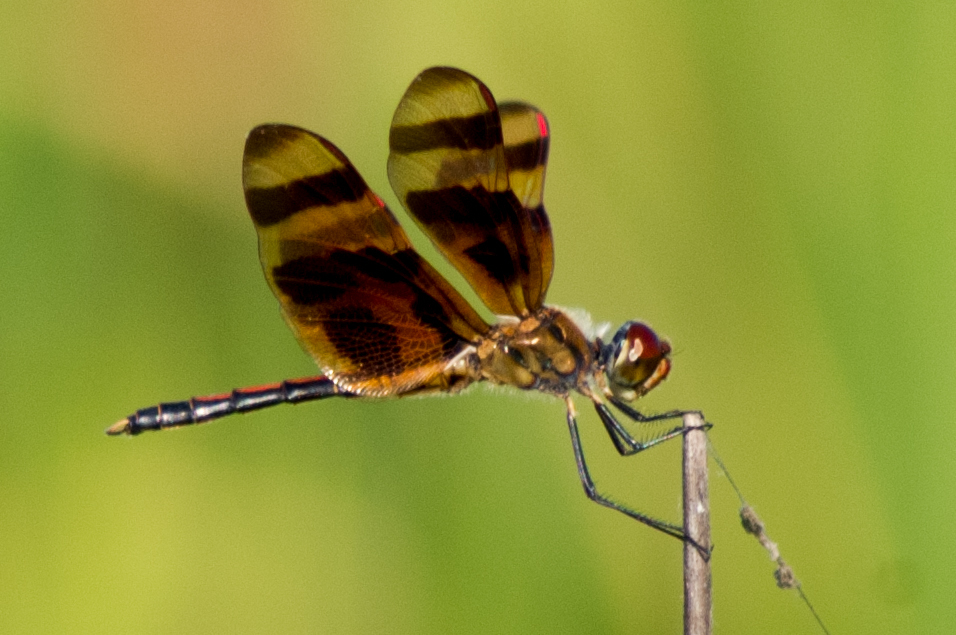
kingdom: Animalia
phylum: Arthropoda
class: Insecta
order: Odonata
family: Libellulidae
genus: Celithemis
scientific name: Celithemis eponina
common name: Halloween pennant
